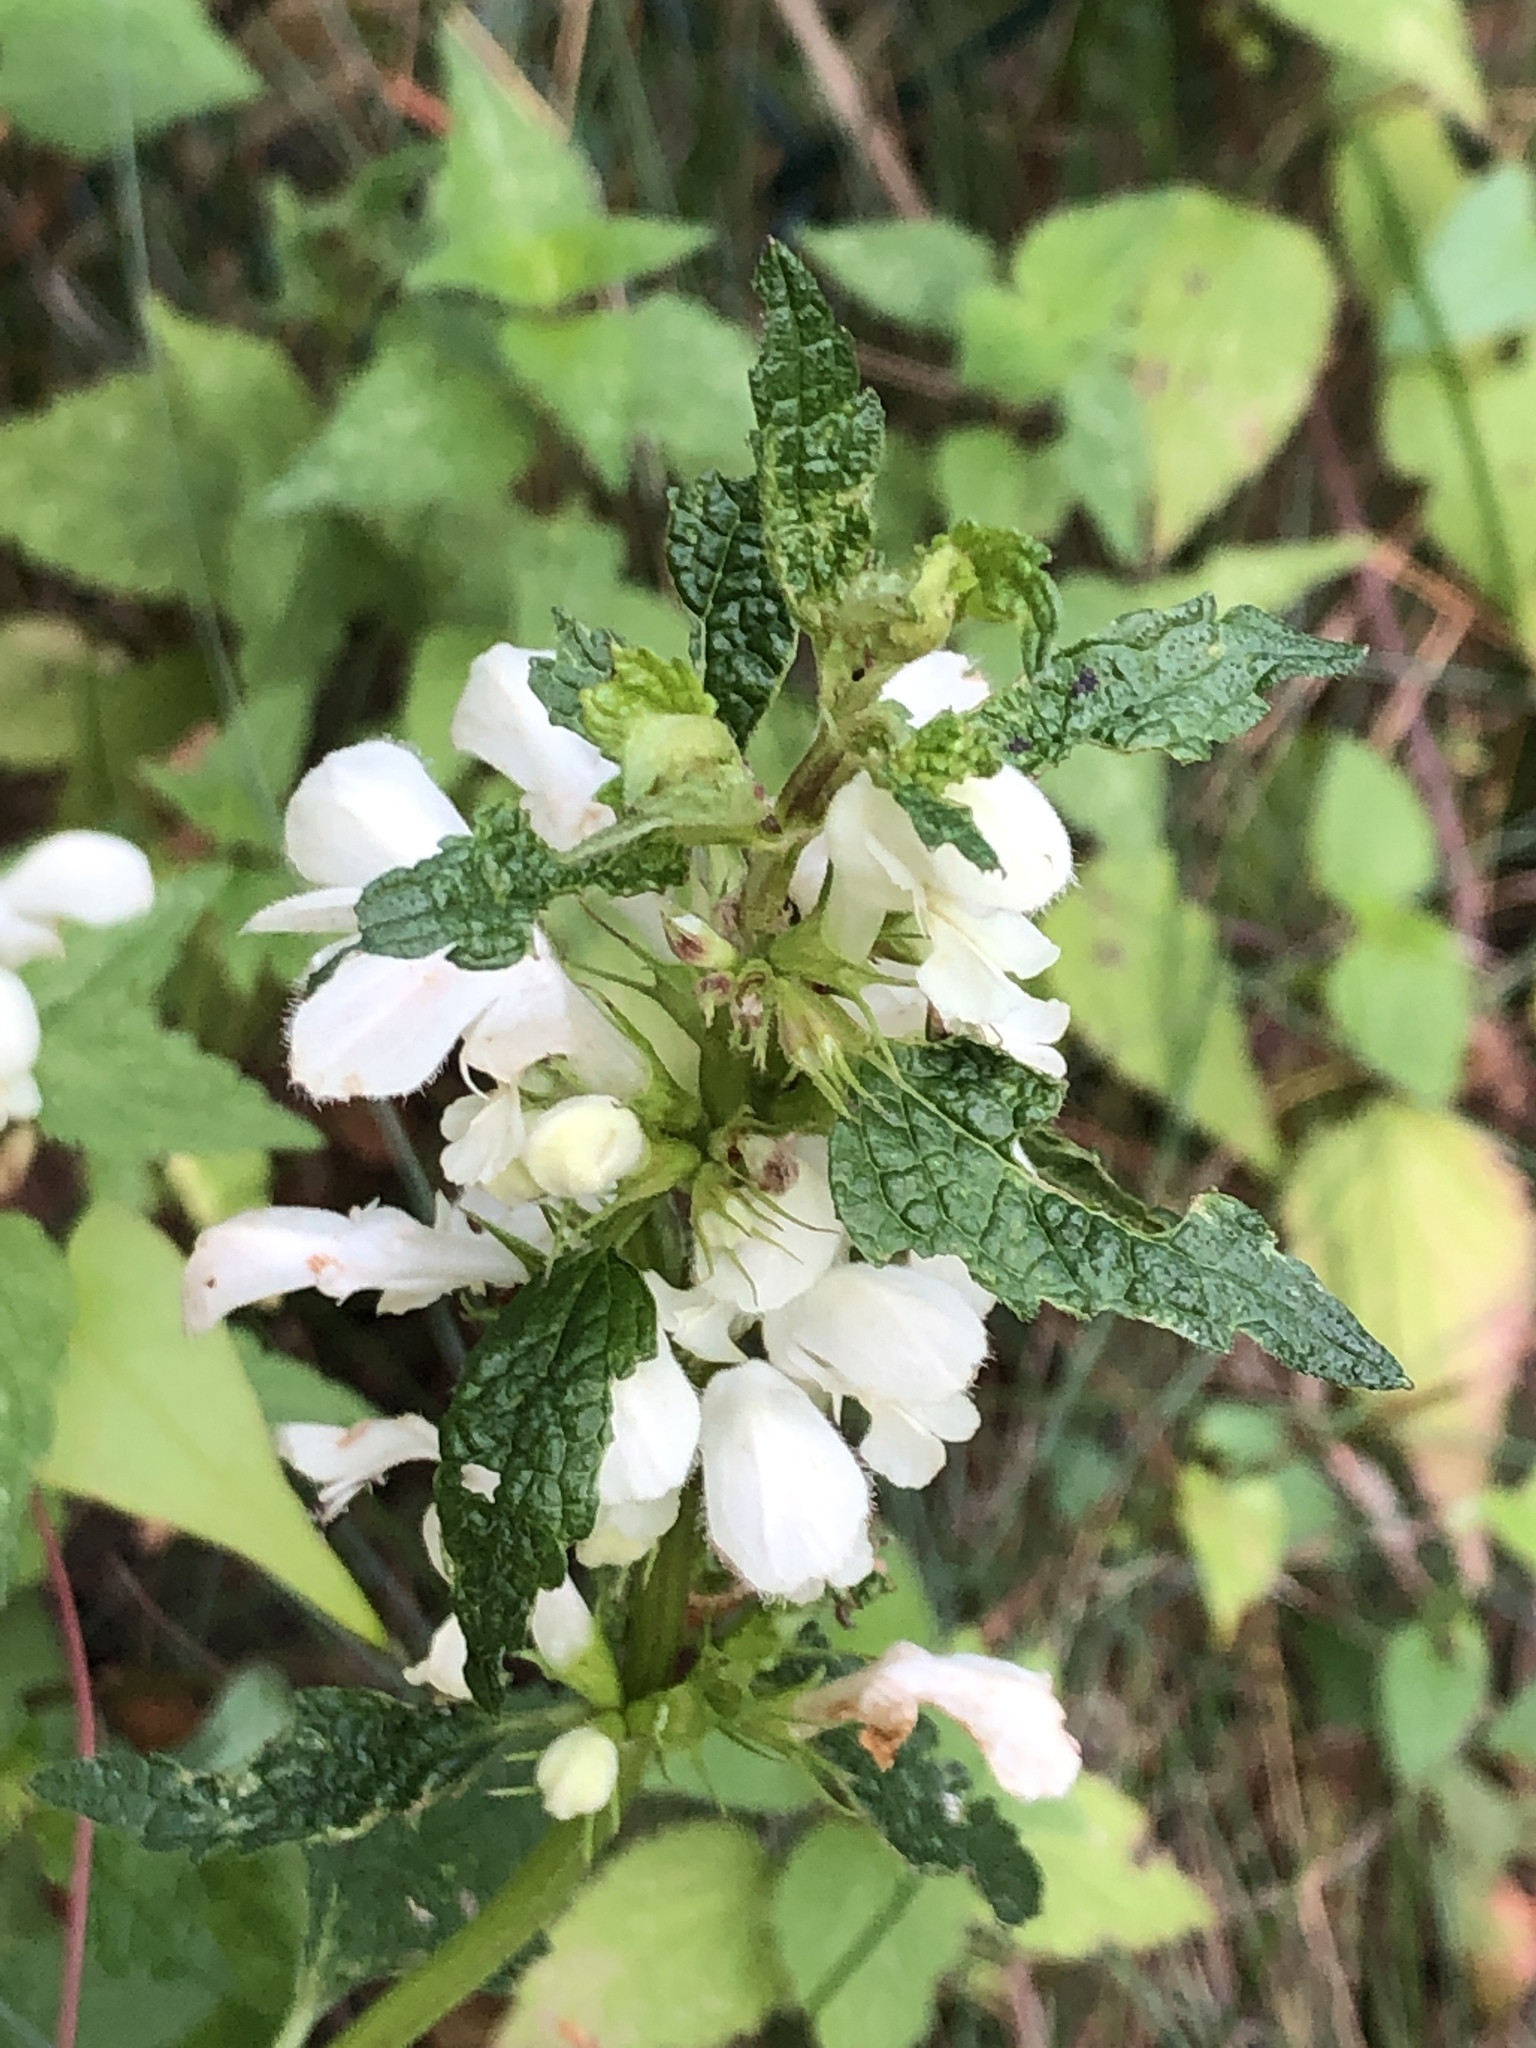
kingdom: Plantae
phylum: Tracheophyta
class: Magnoliopsida
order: Lamiales
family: Lamiaceae
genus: Lamium
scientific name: Lamium album
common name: White dead-nettle
